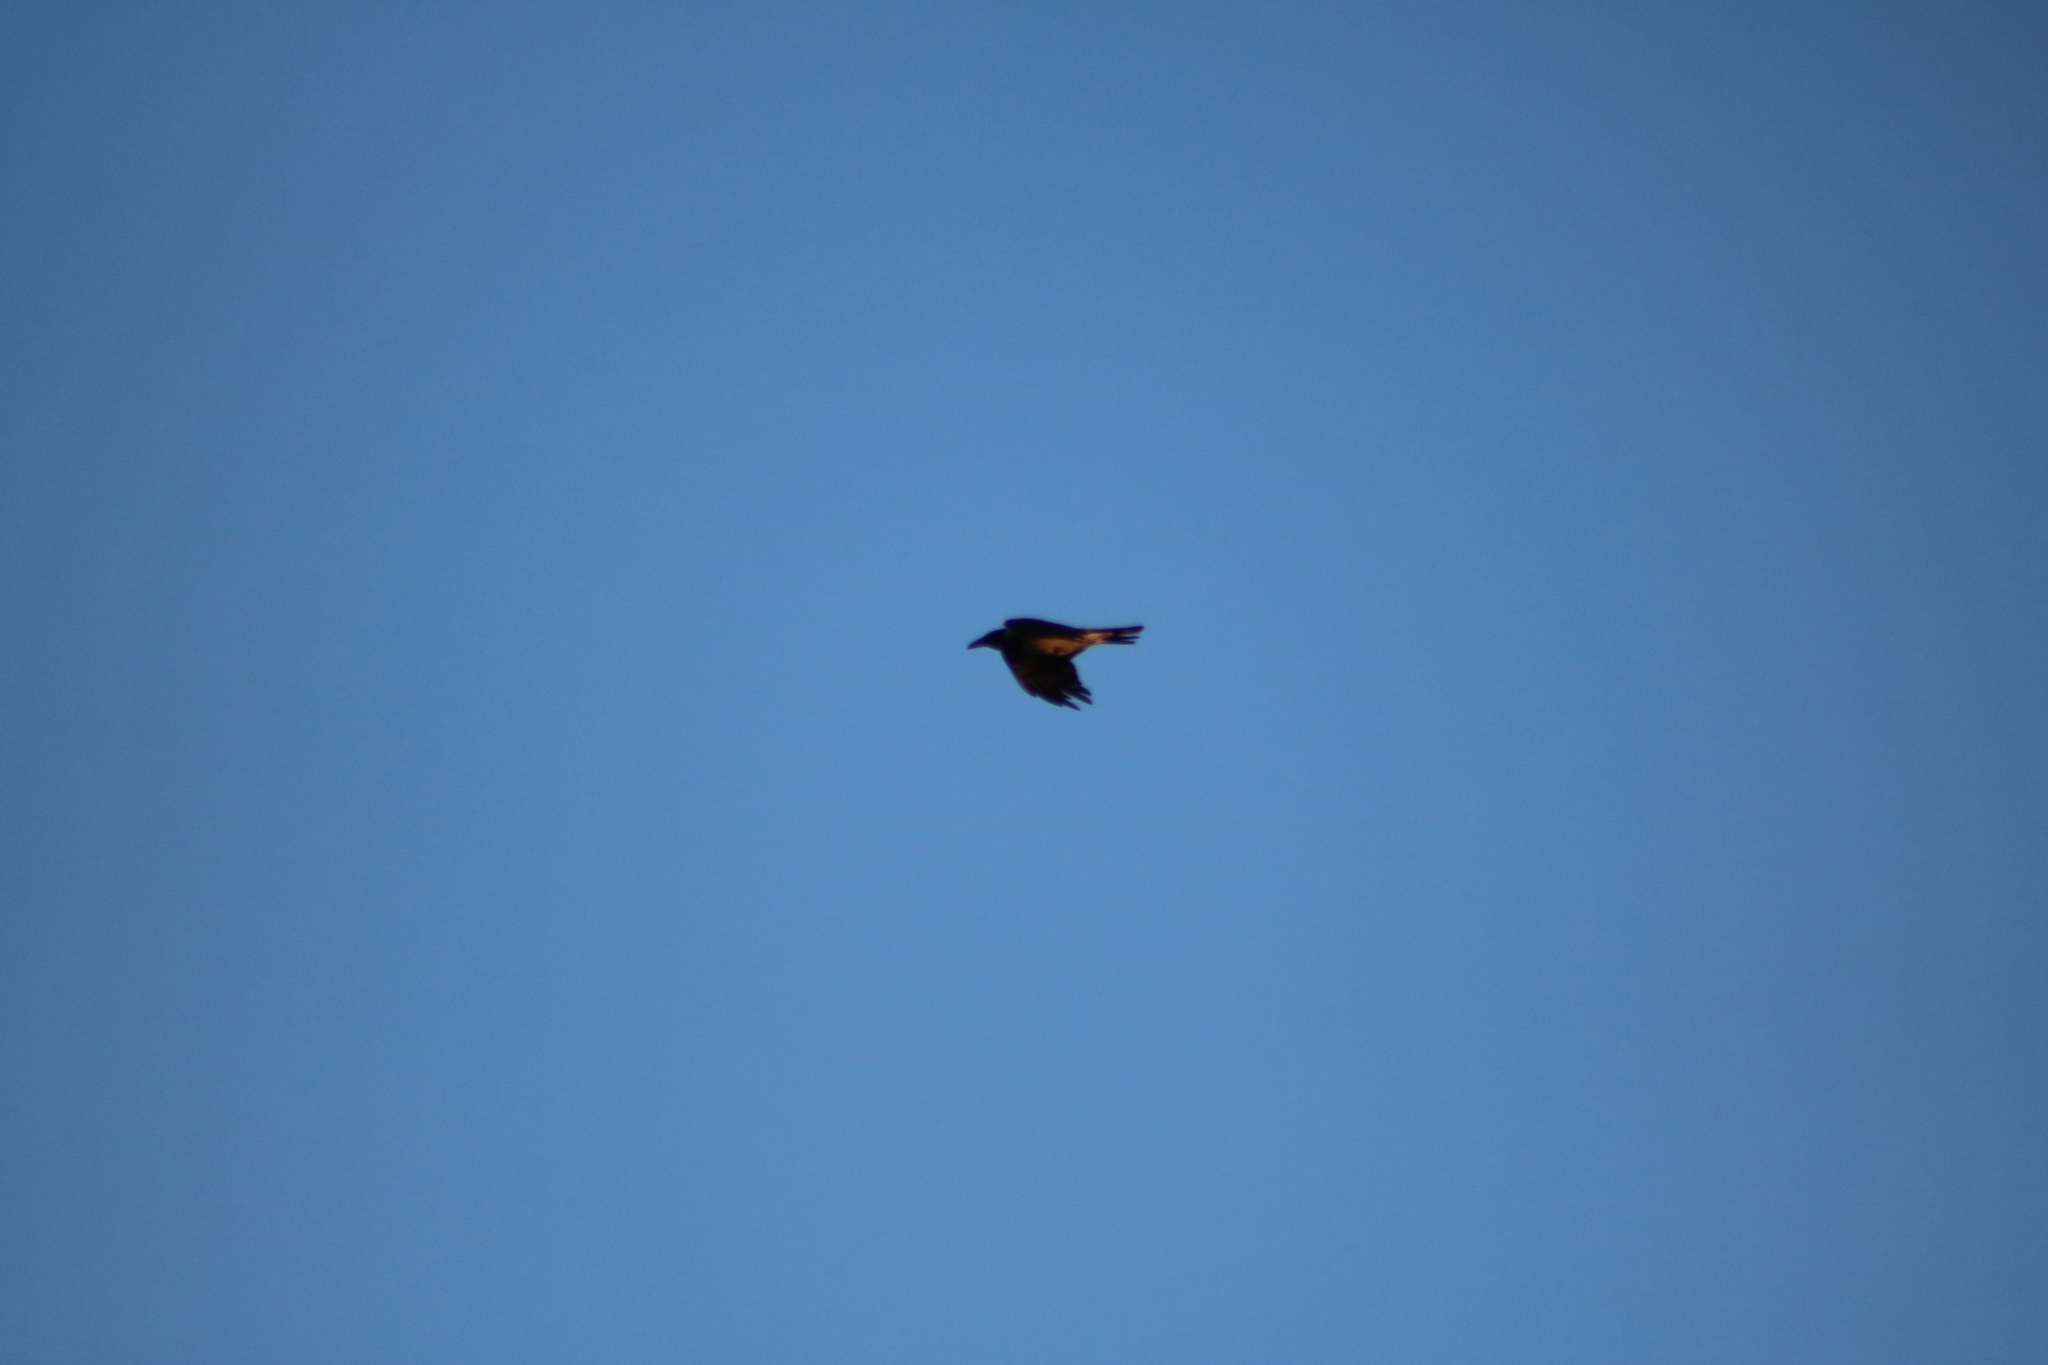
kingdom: Animalia
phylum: Chordata
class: Aves
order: Passeriformes
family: Corvidae
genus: Corvus
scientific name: Corvus cornix
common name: Hooded crow
